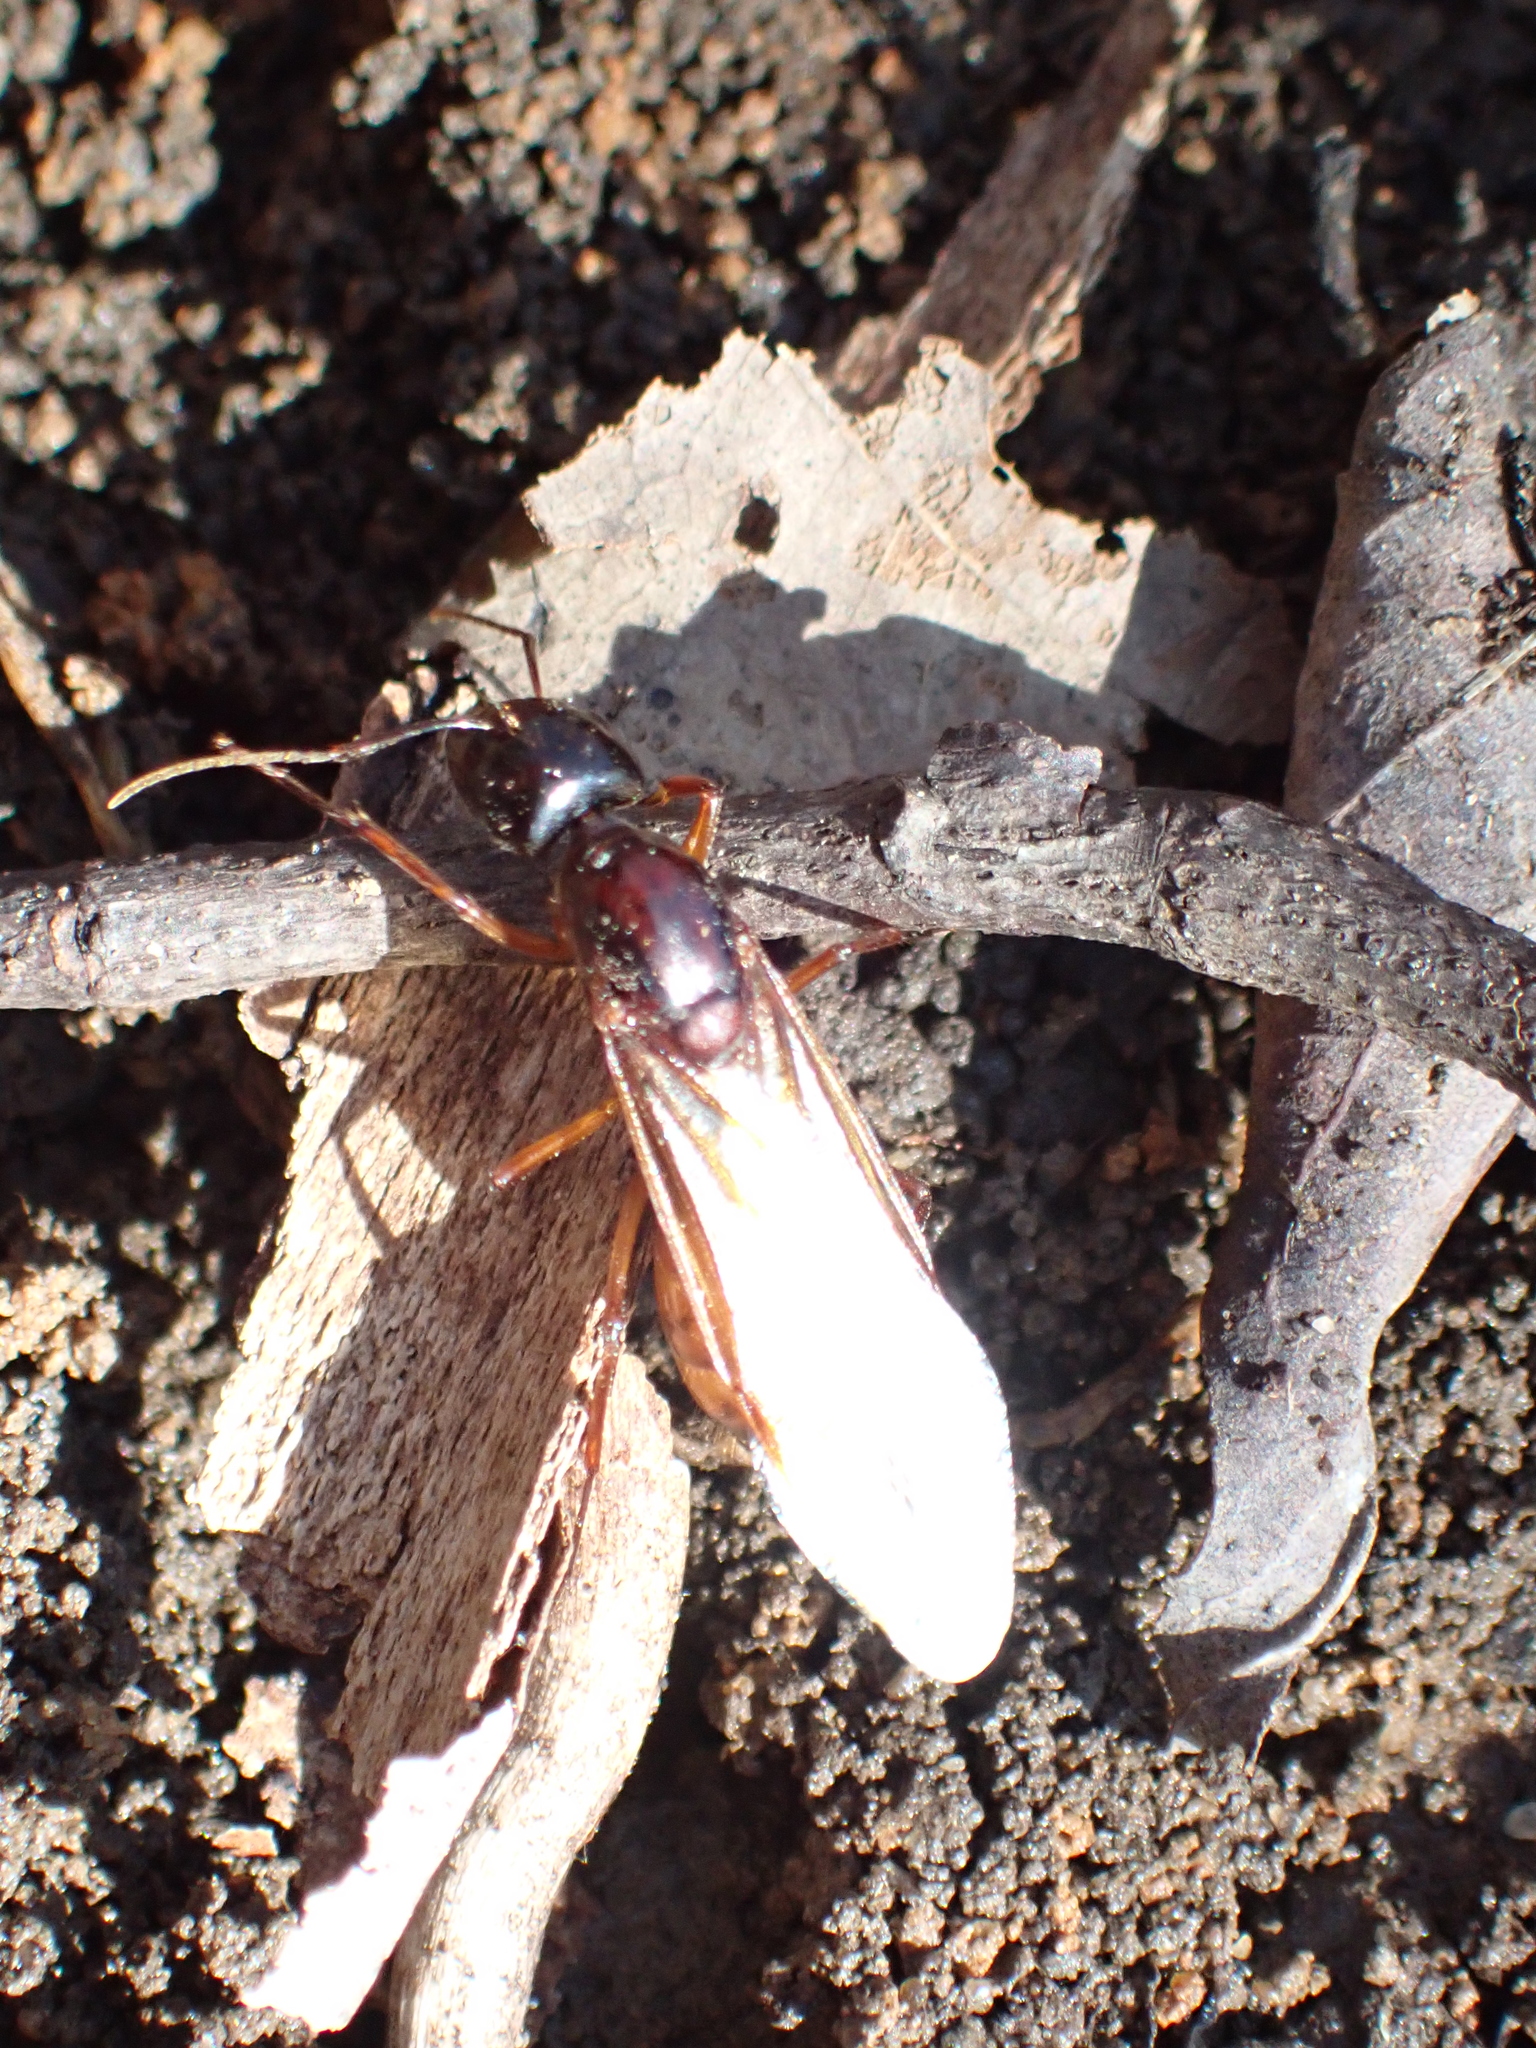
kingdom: Animalia
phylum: Arthropoda
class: Insecta
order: Hymenoptera
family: Formicidae
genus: Camponotus
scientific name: Camponotus americanus
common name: American carpenter ant
